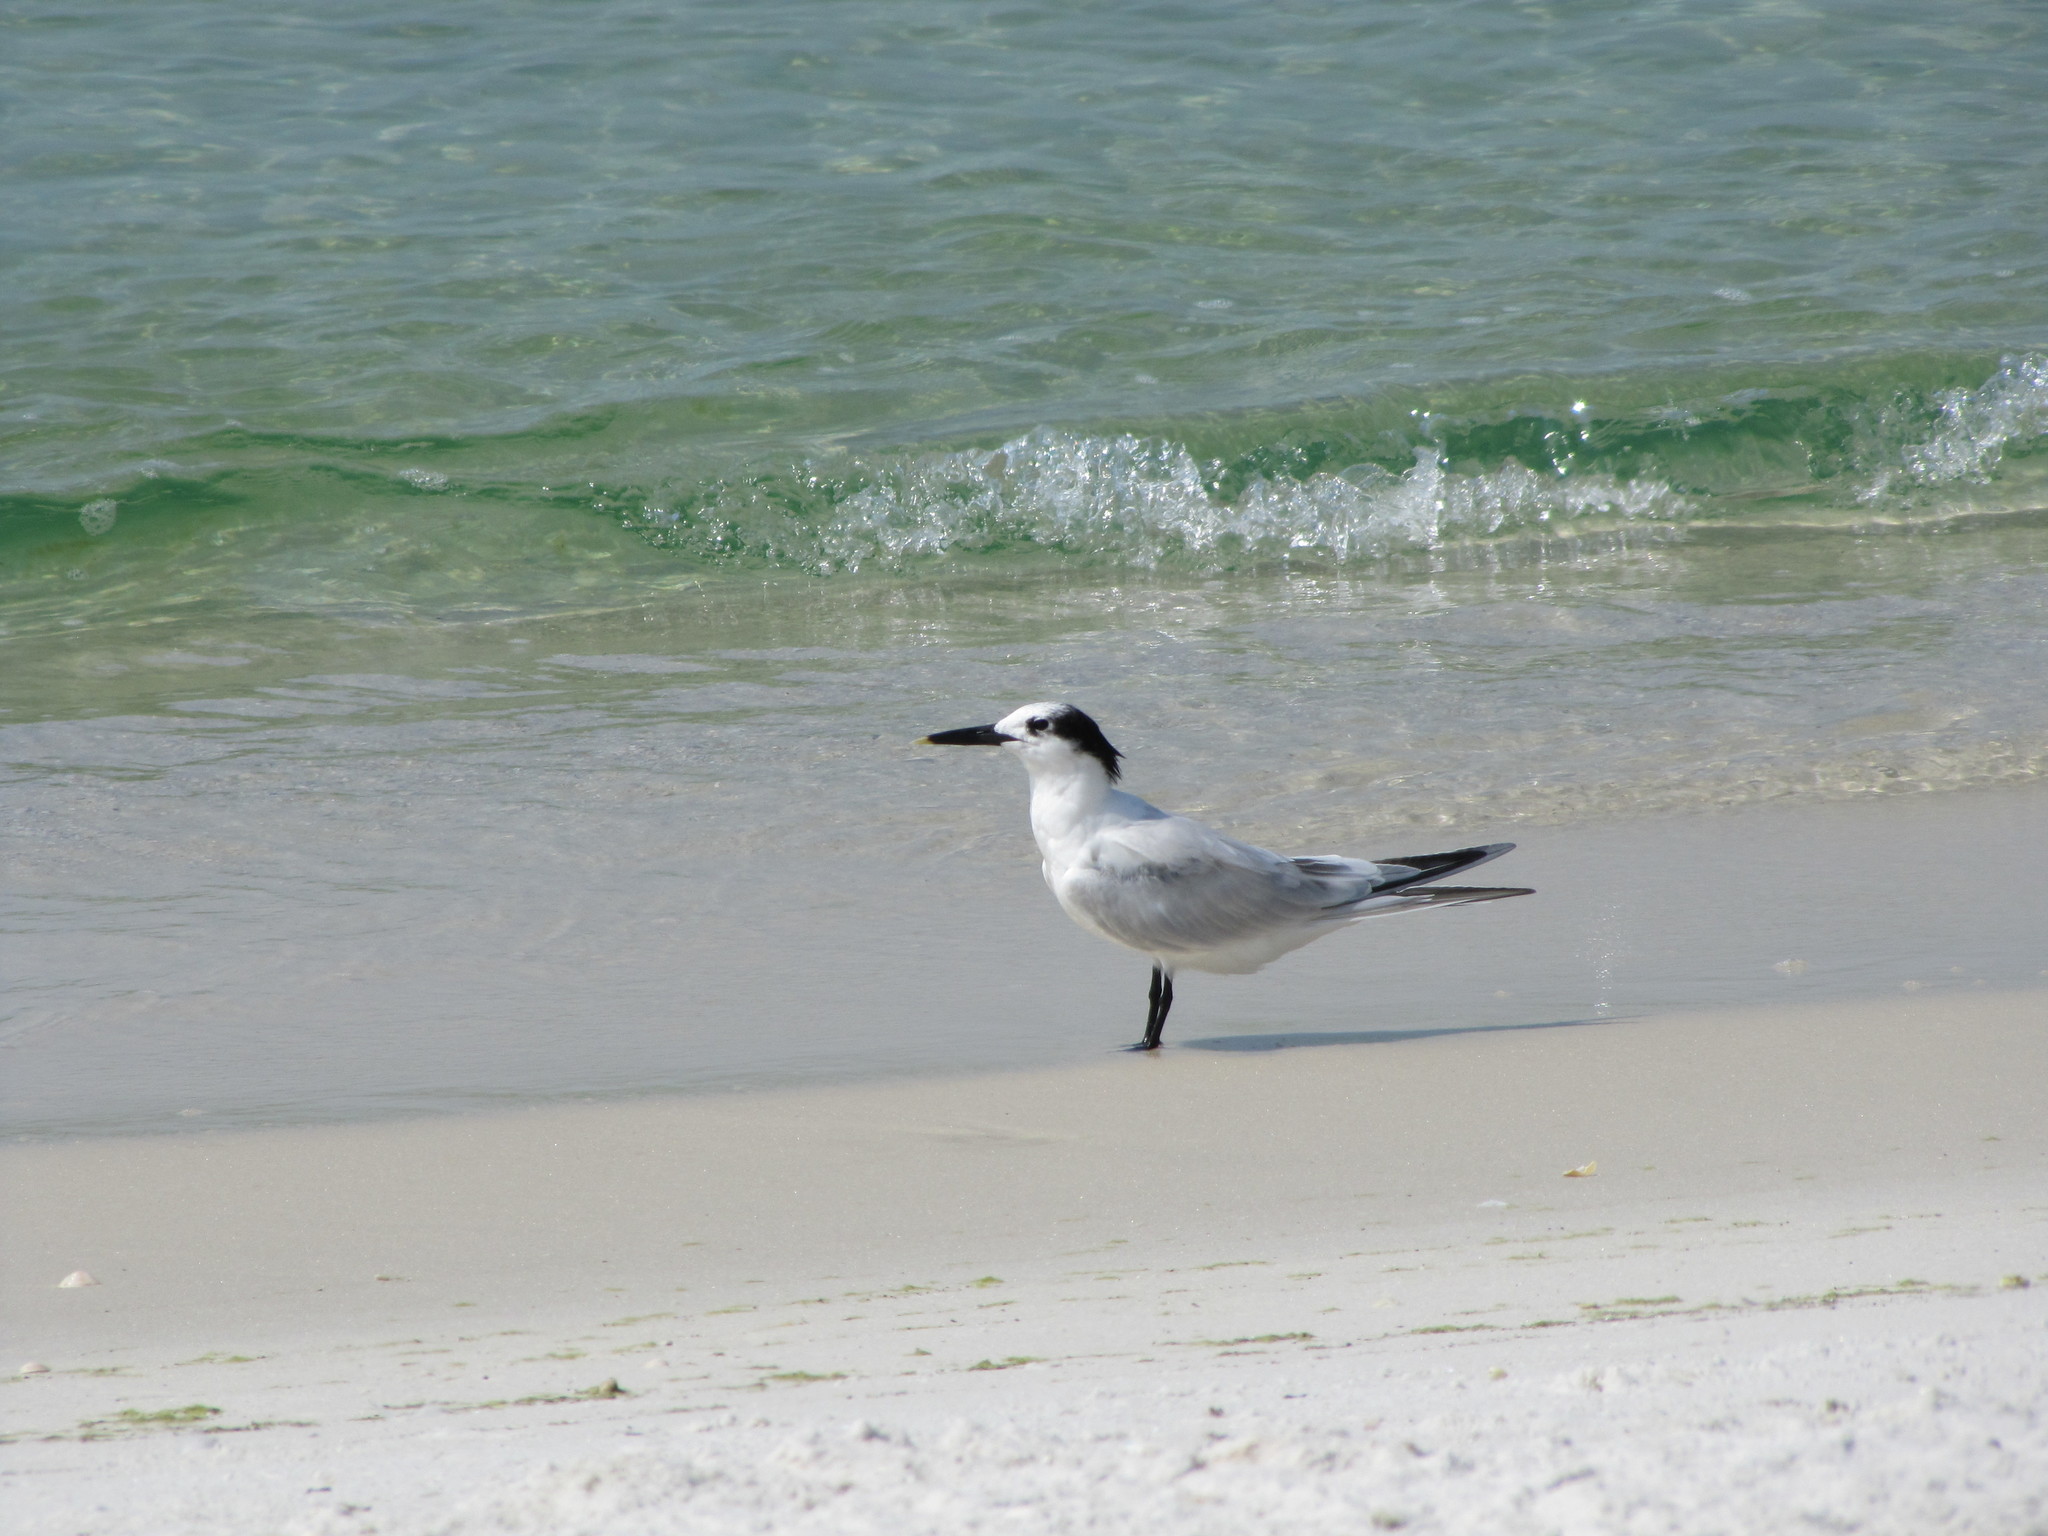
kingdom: Animalia
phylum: Chordata
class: Aves
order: Charadriiformes
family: Laridae
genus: Thalasseus
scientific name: Thalasseus sandvicensis
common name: Sandwich tern
